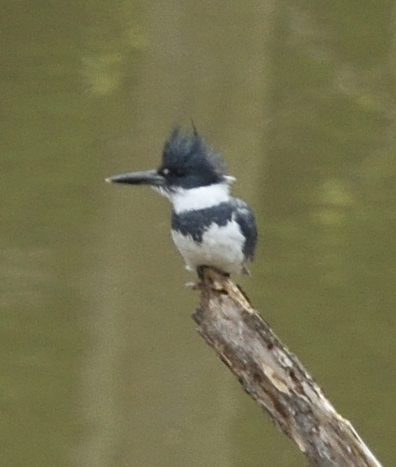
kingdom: Animalia
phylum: Chordata
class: Aves
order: Coraciiformes
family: Alcedinidae
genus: Megaceryle
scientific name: Megaceryle alcyon
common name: Belted kingfisher
